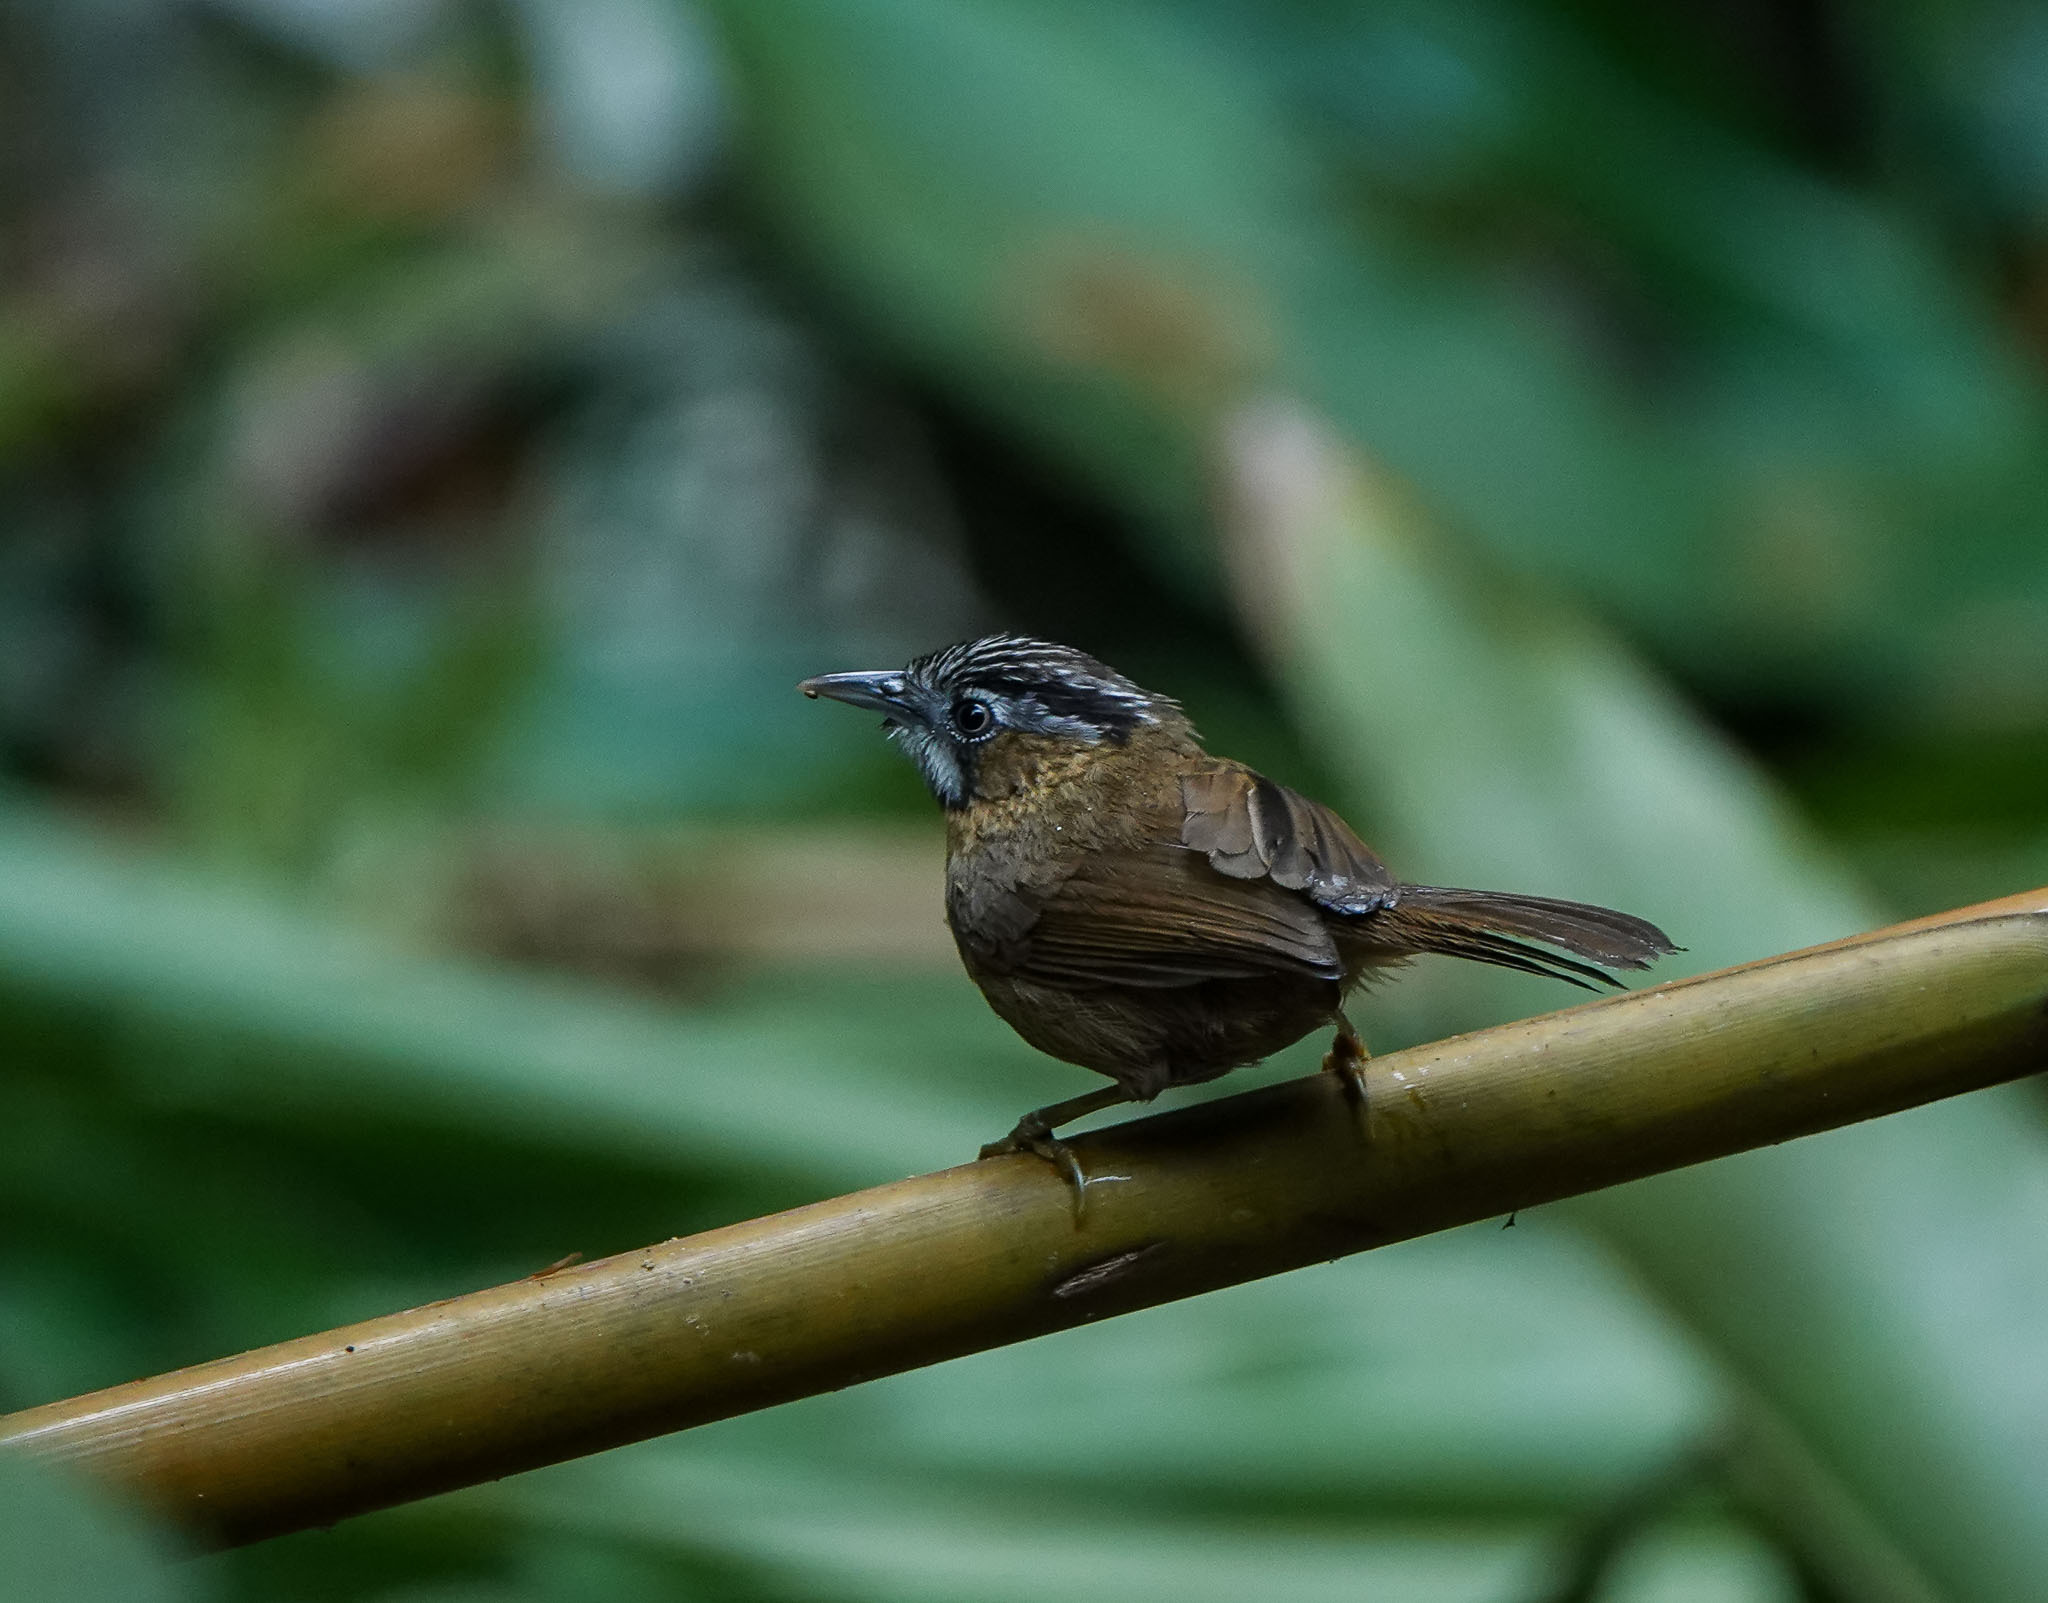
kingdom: Animalia
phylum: Chordata
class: Aves
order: Passeriformes
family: Timaliidae
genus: Stachyris
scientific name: Stachyris nigriceps
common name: Grey-throated babbler
